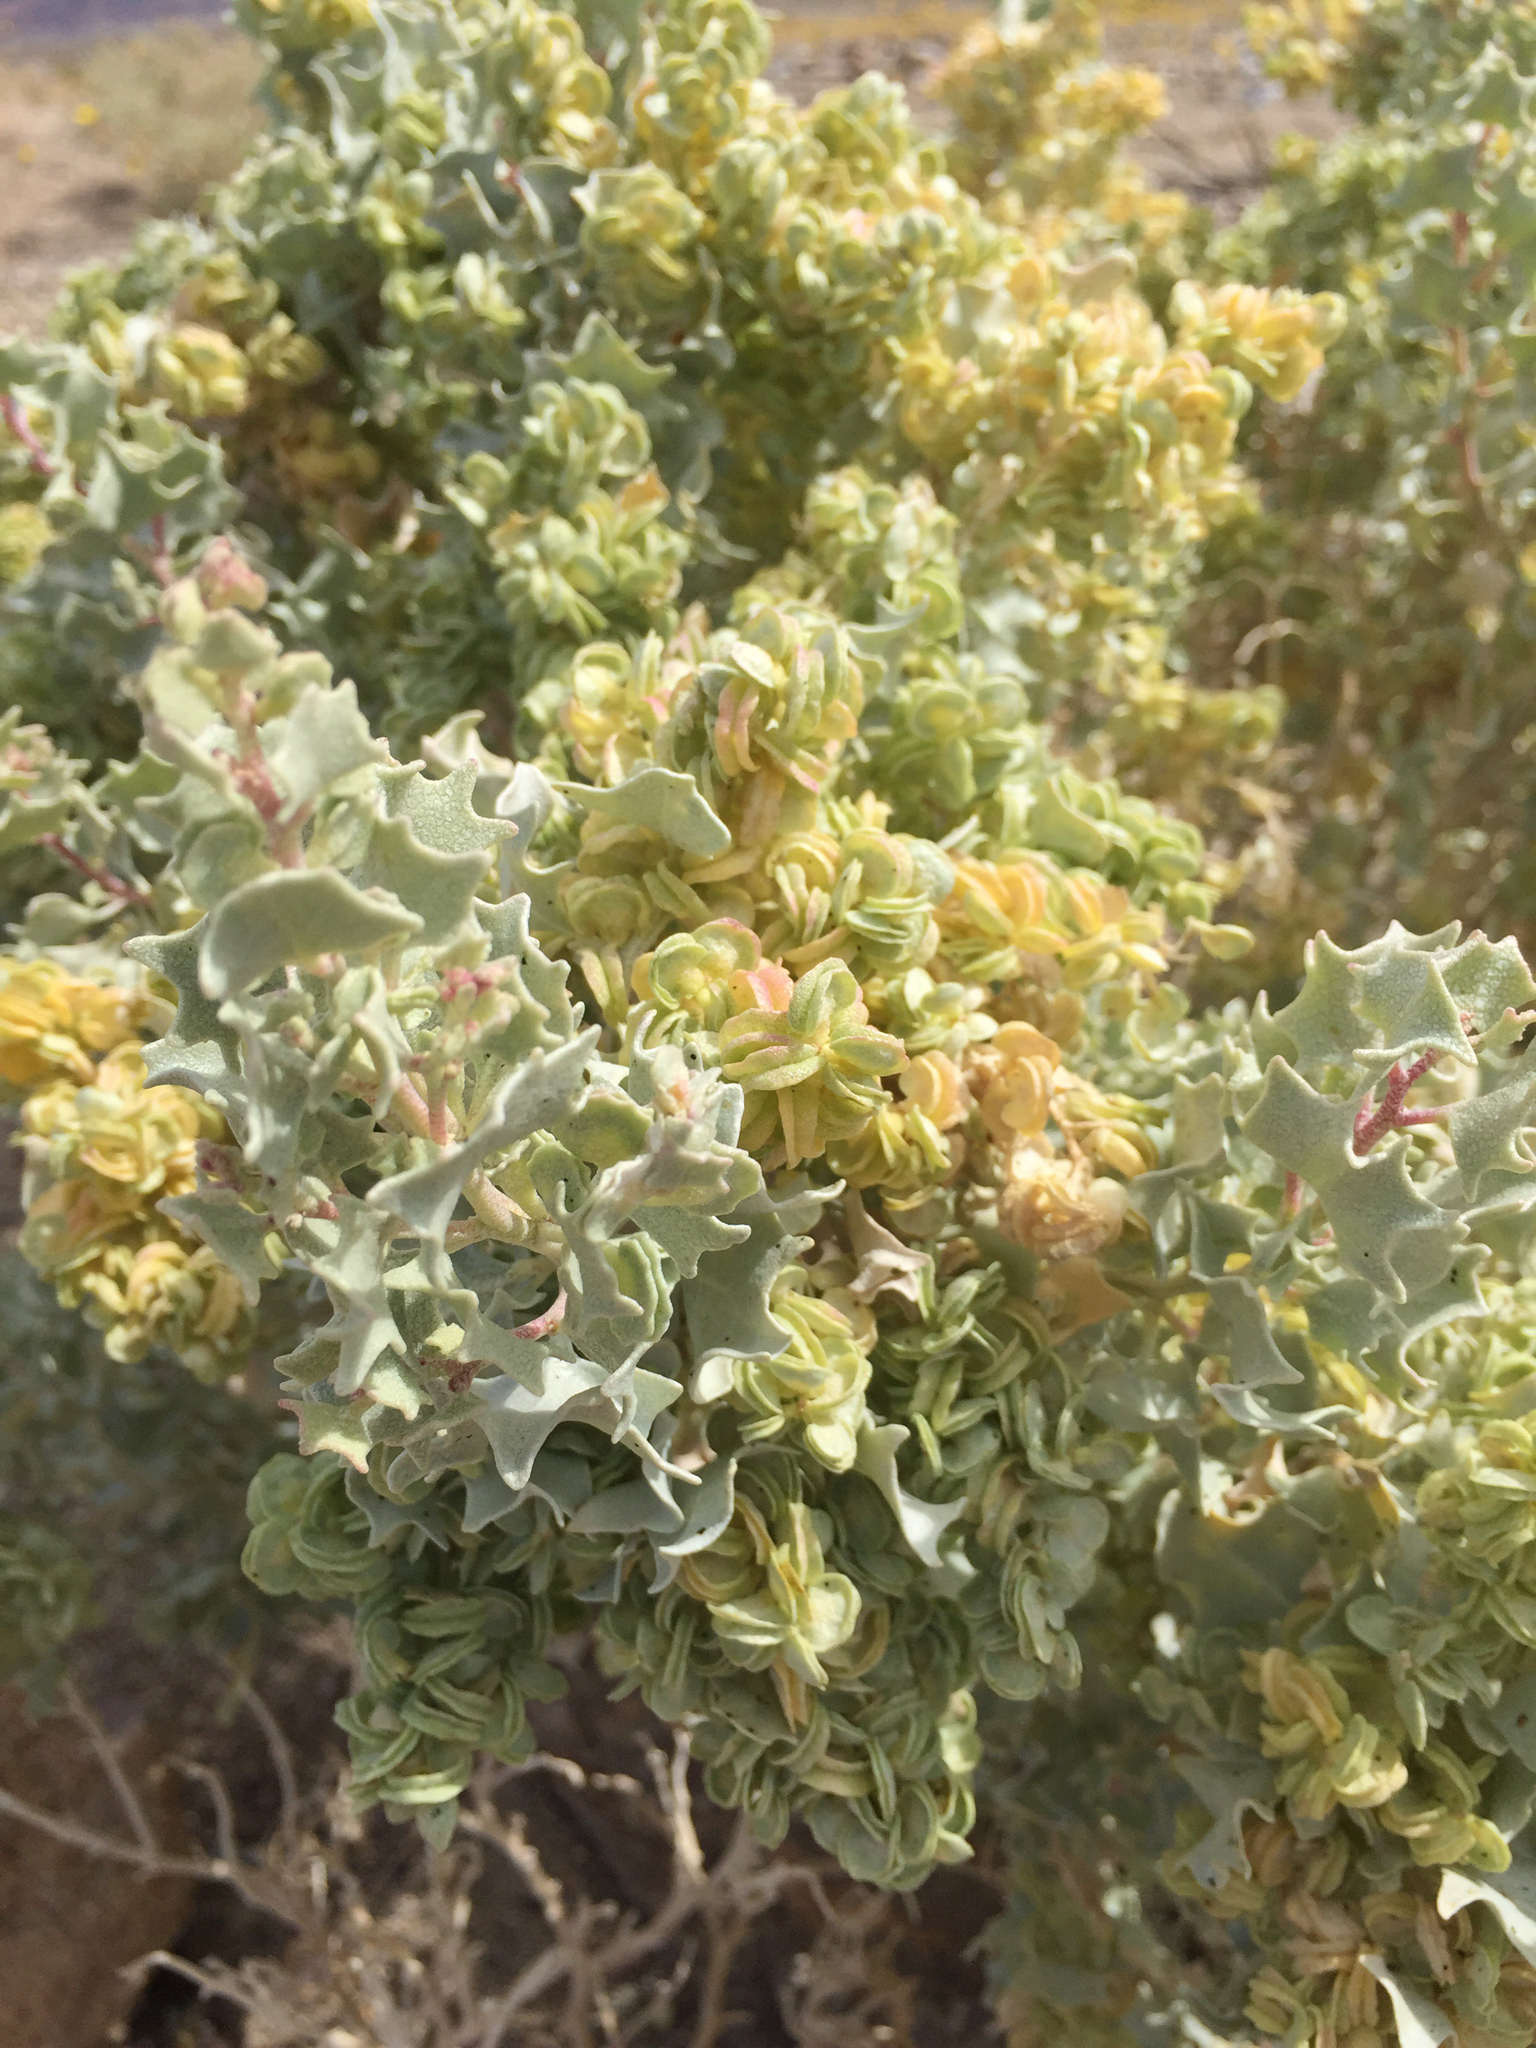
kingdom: Plantae
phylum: Tracheophyta
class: Magnoliopsida
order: Caryophyllales
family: Amaranthaceae
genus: Atriplex
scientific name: Atriplex hymenelytra
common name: Desert-holly
